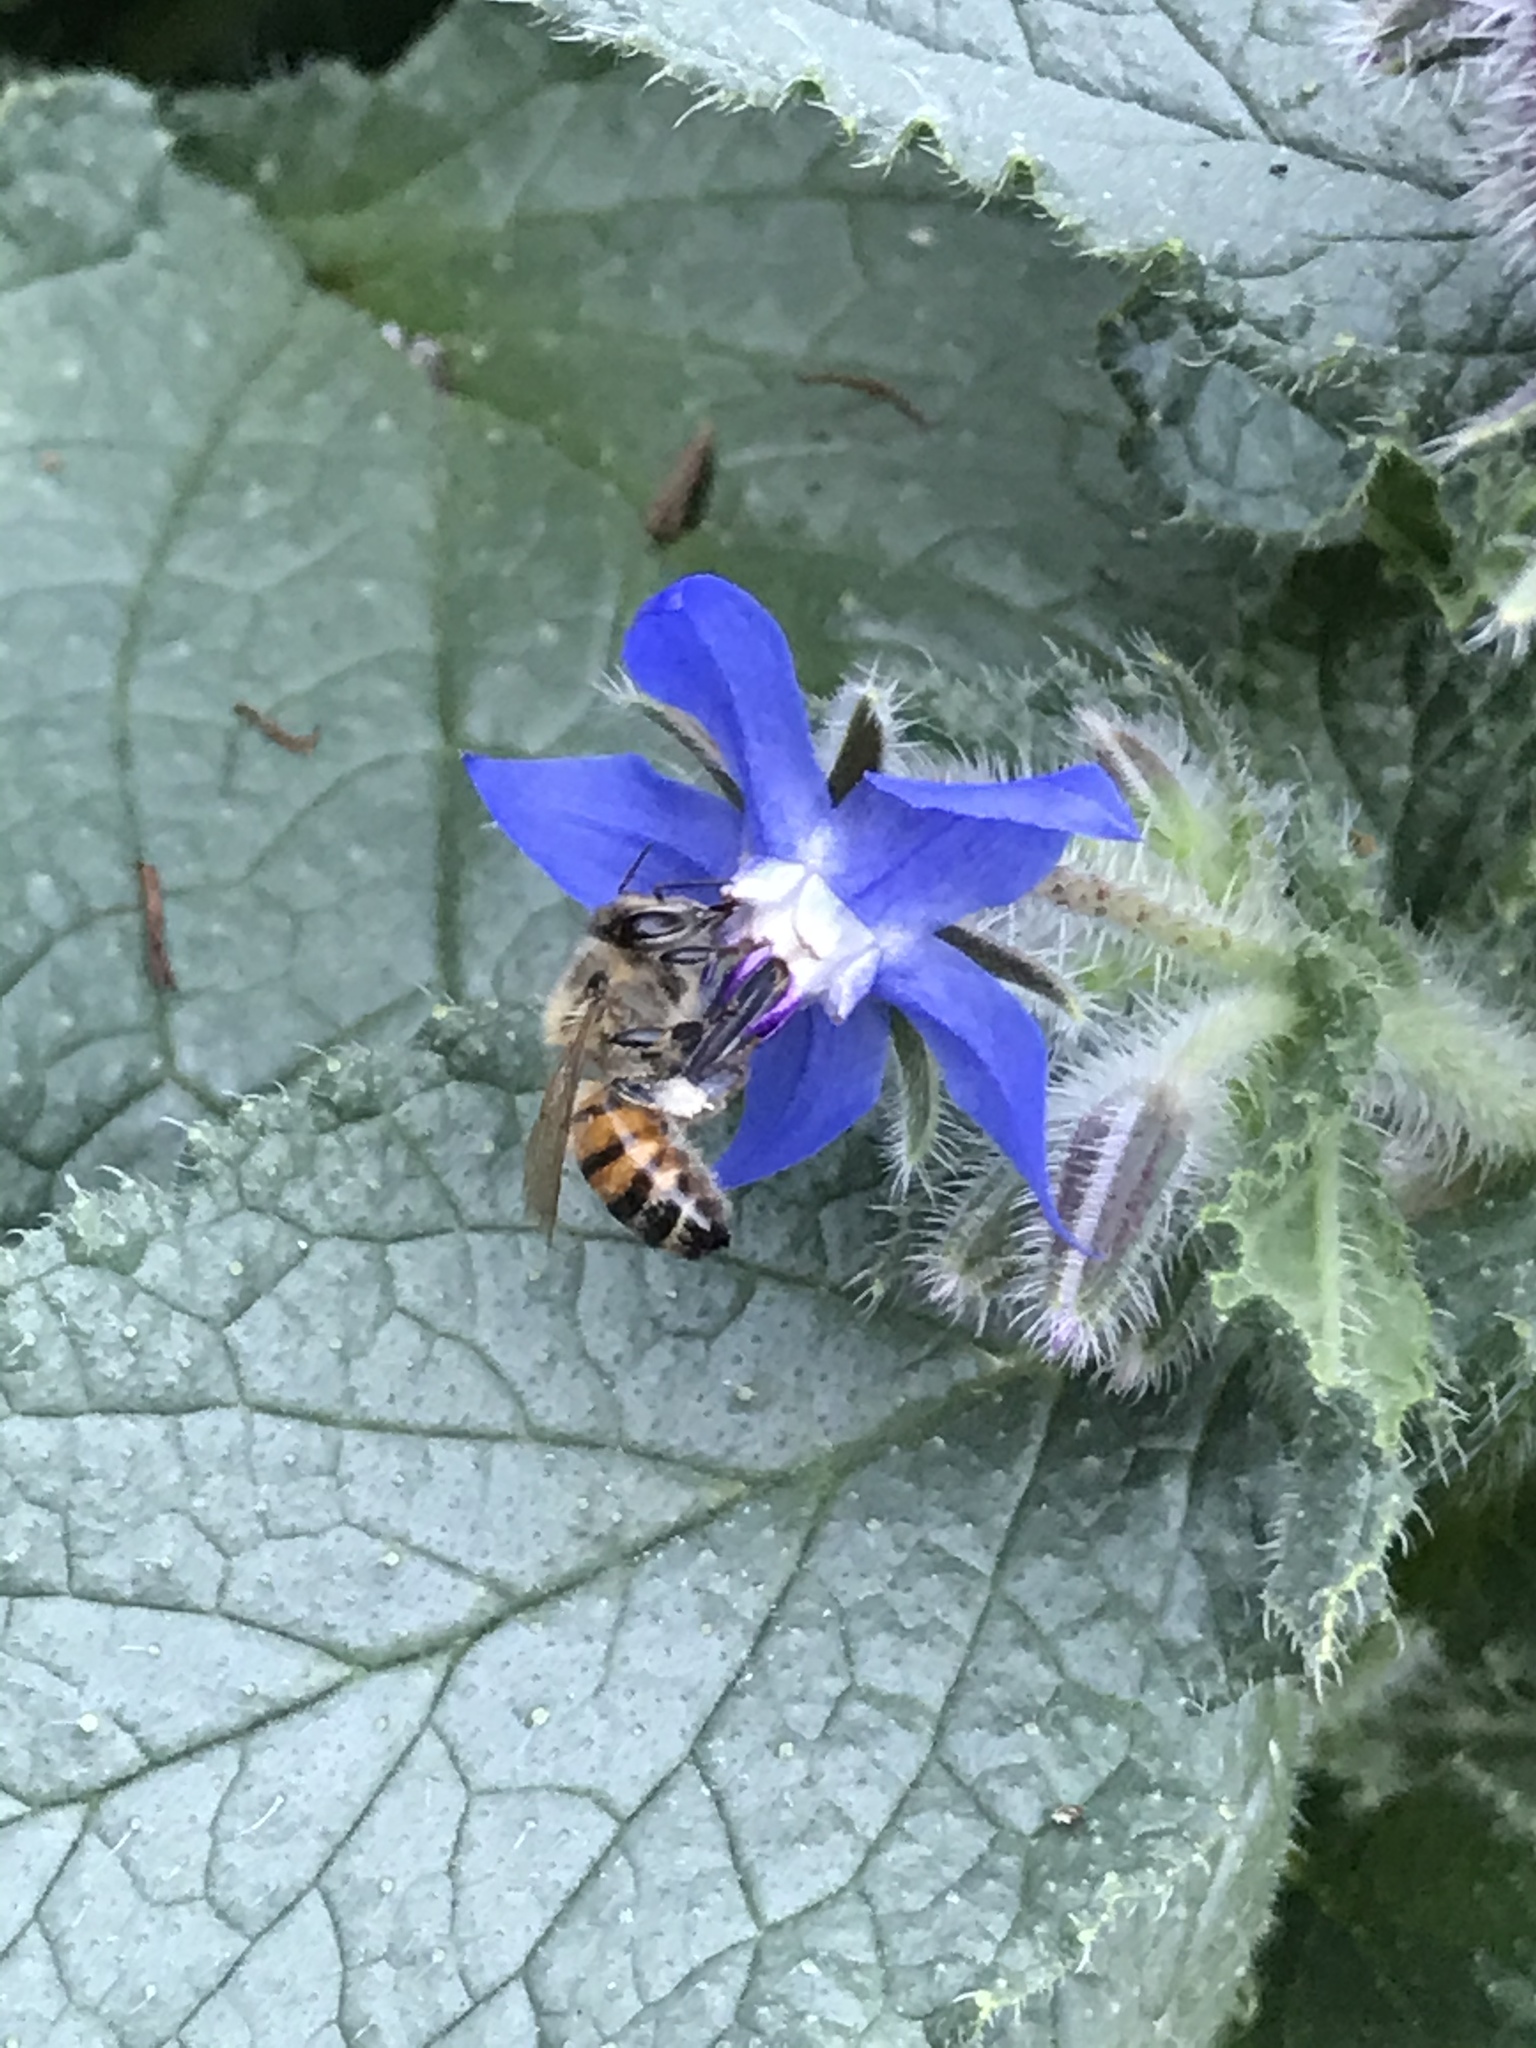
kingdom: Animalia
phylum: Arthropoda
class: Insecta
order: Hymenoptera
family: Apidae
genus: Apis
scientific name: Apis mellifera
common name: Honey bee
